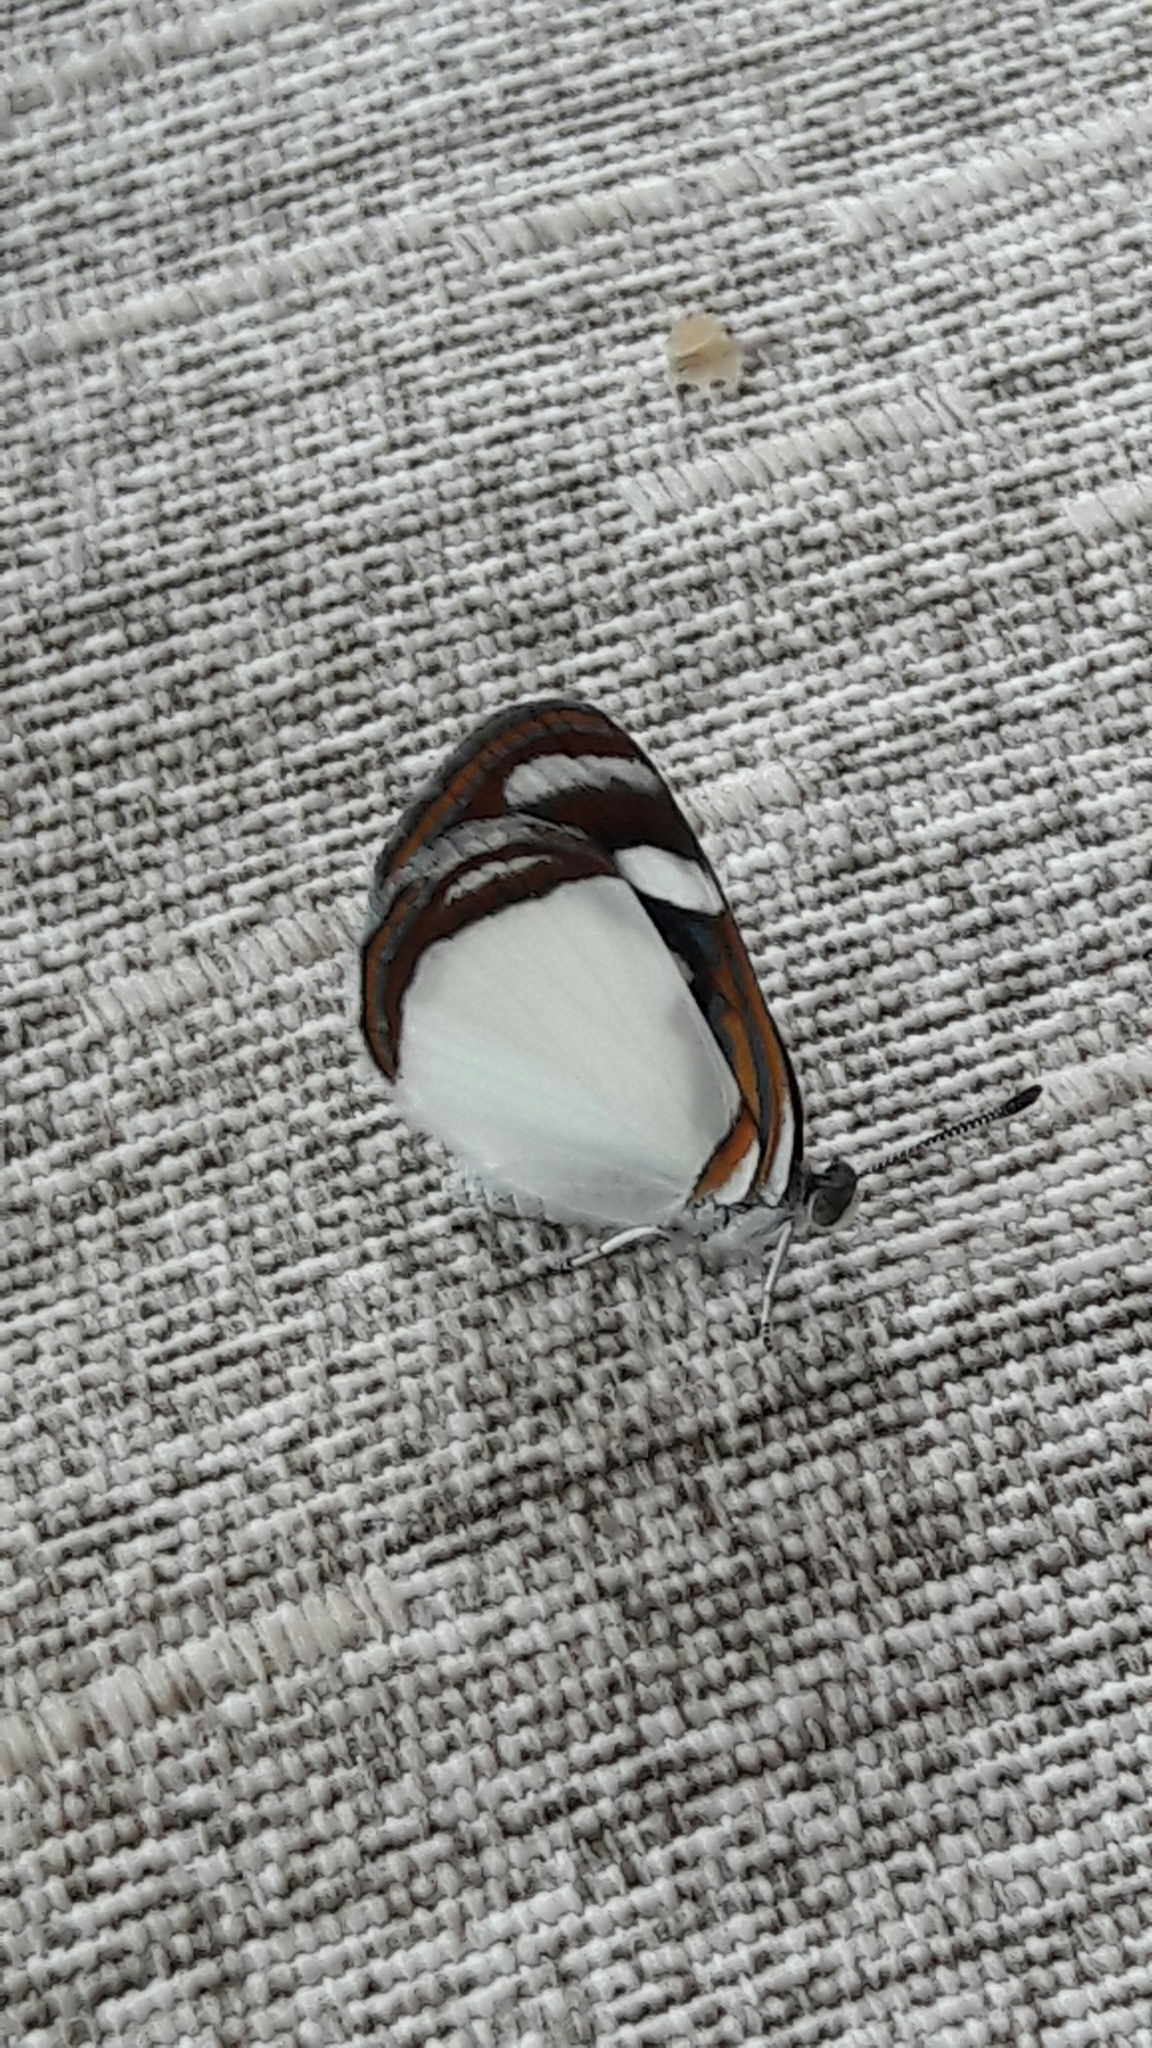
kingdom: Animalia
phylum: Arthropoda
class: Insecta
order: Lepidoptera
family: Nymphalidae
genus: Dynamine
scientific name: Dynamine agacles
